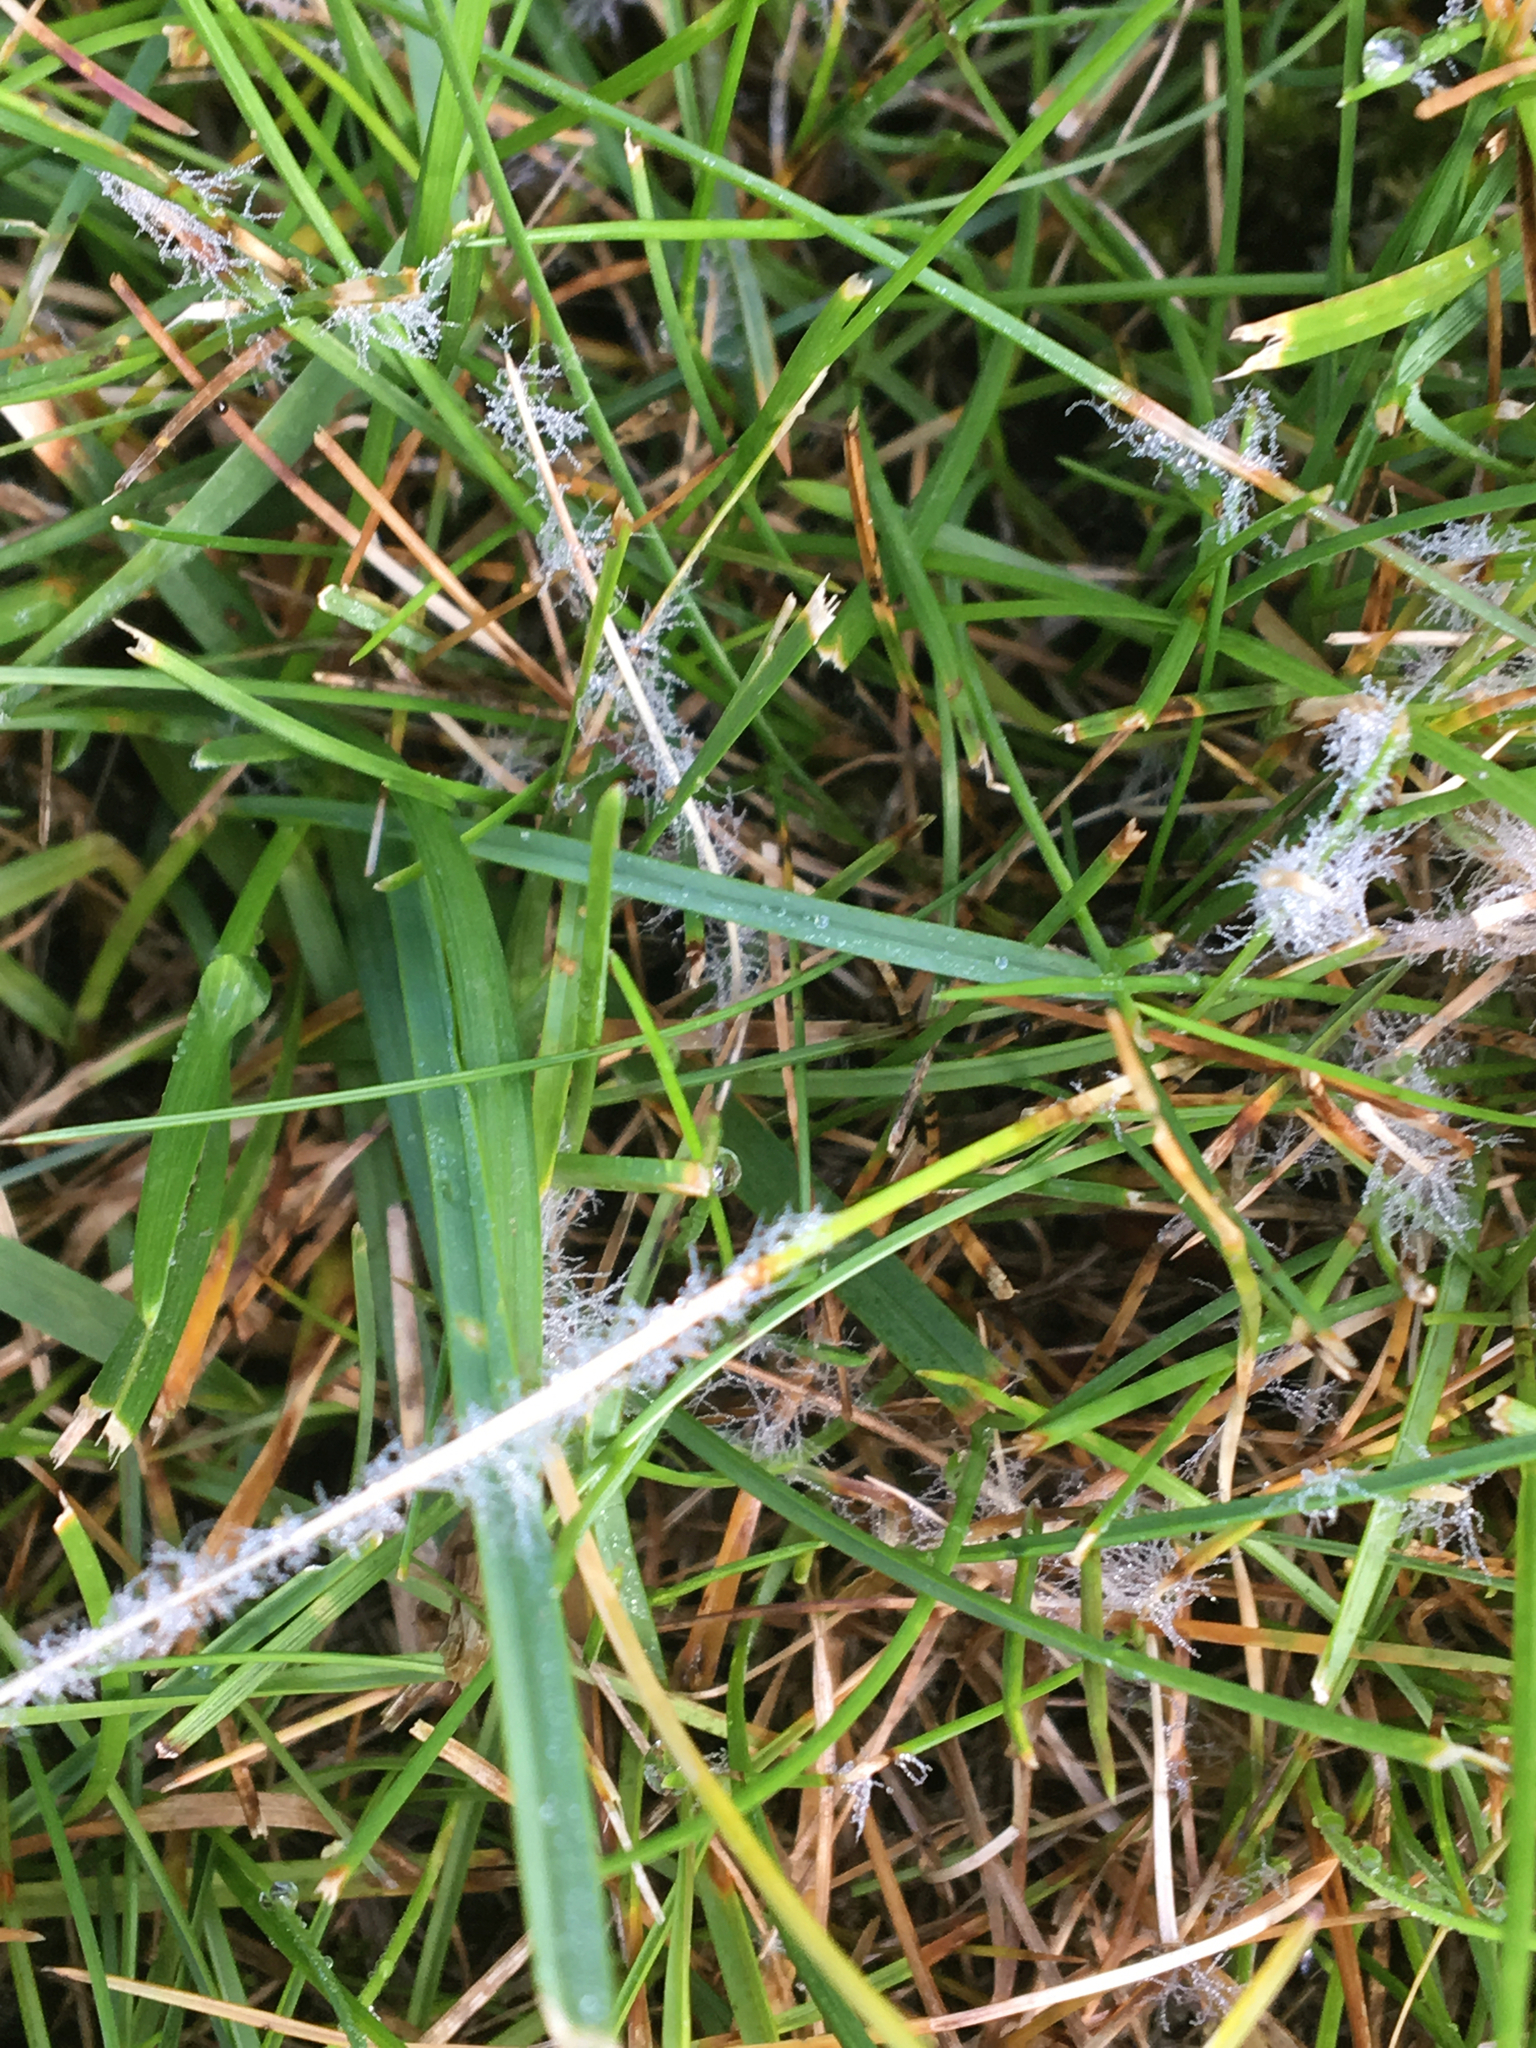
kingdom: Fungi
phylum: Ascomycota
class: Leotiomycetes
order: Helotiales
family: Sclerotiniaceae
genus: Clarireedia
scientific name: Clarireedia homoeocarpa
